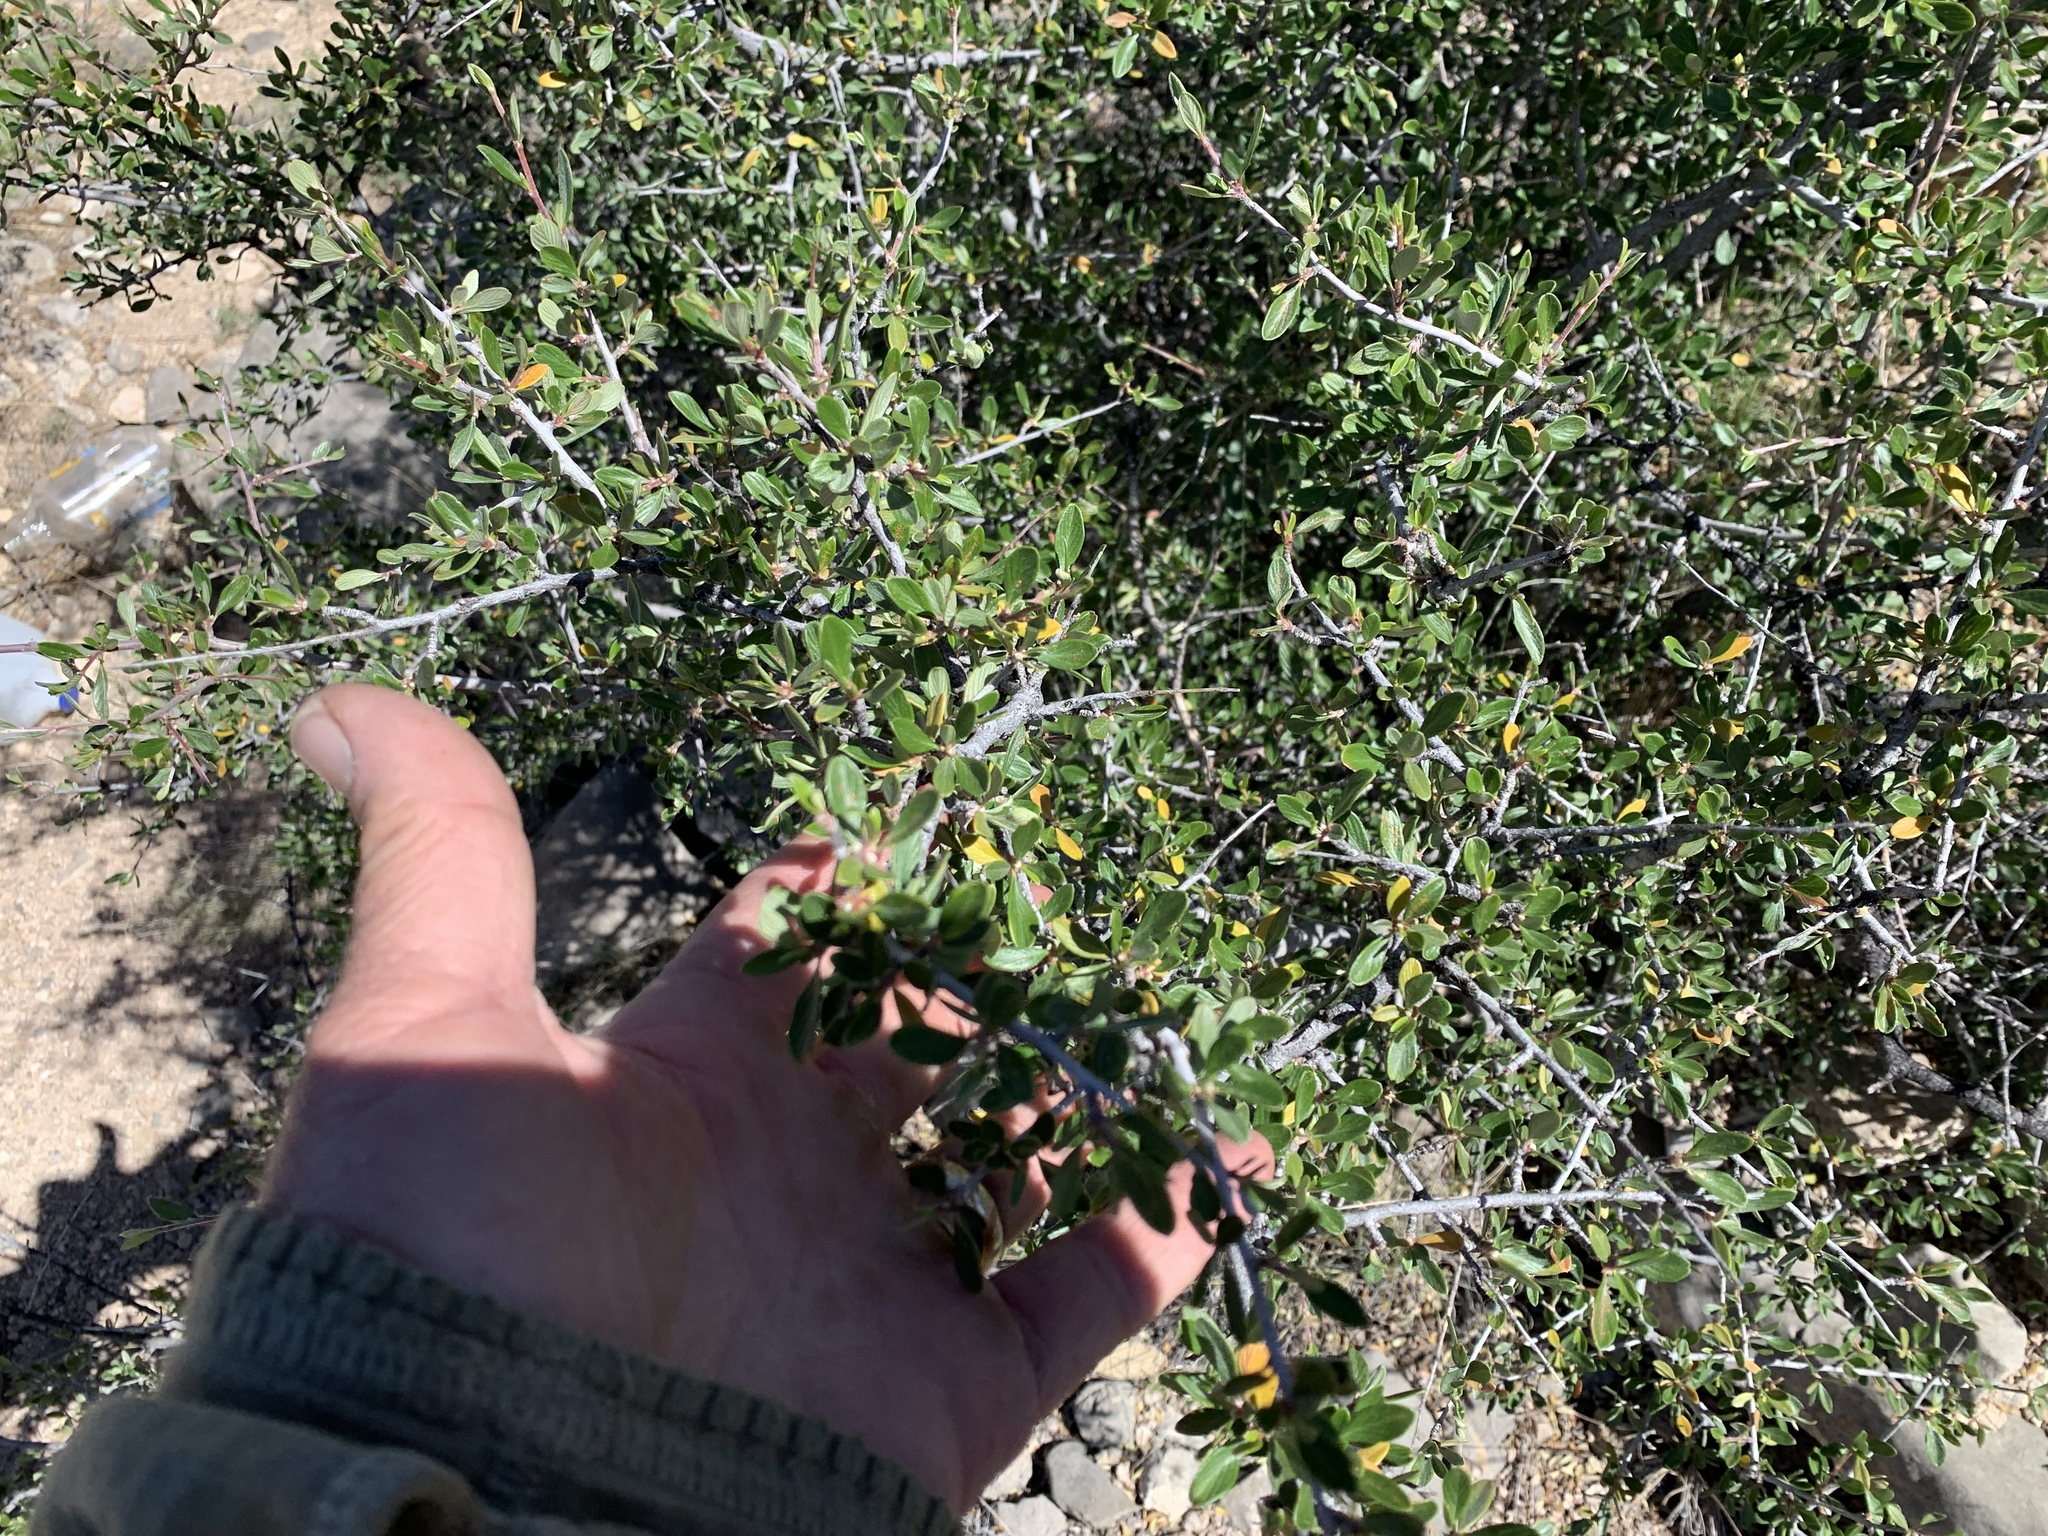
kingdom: Plantae
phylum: Tracheophyta
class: Magnoliopsida
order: Rosales
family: Rosaceae
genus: Cercocarpus
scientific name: Cercocarpus breviflorus
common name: Wright's mountain-mahogany
